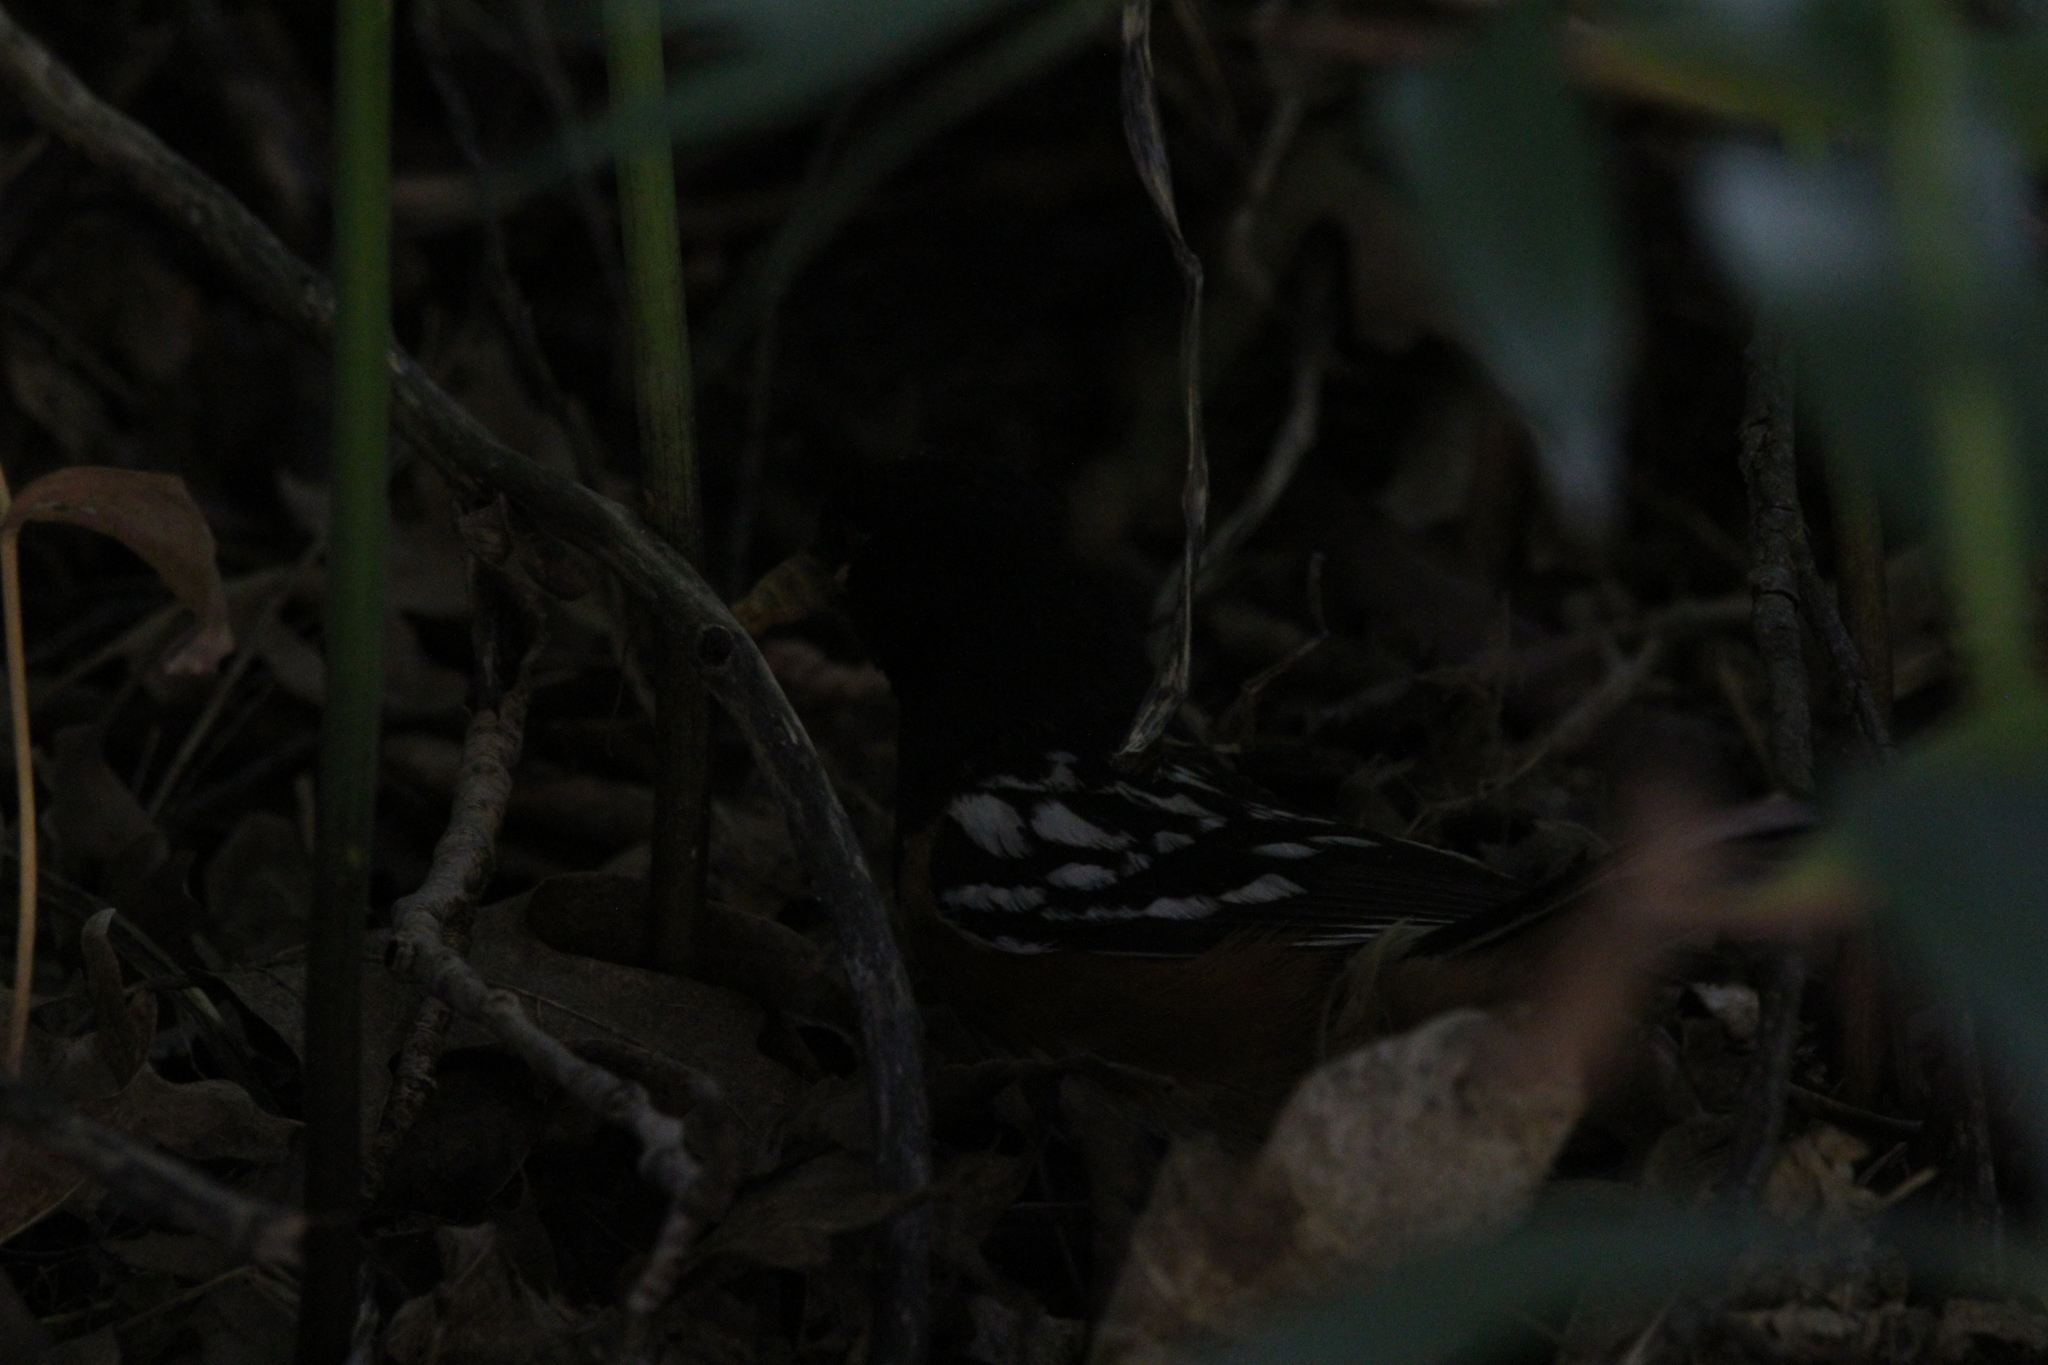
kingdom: Animalia
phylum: Chordata
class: Aves
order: Passeriformes
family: Passerellidae
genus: Pipilo
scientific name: Pipilo maculatus
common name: Spotted towhee
